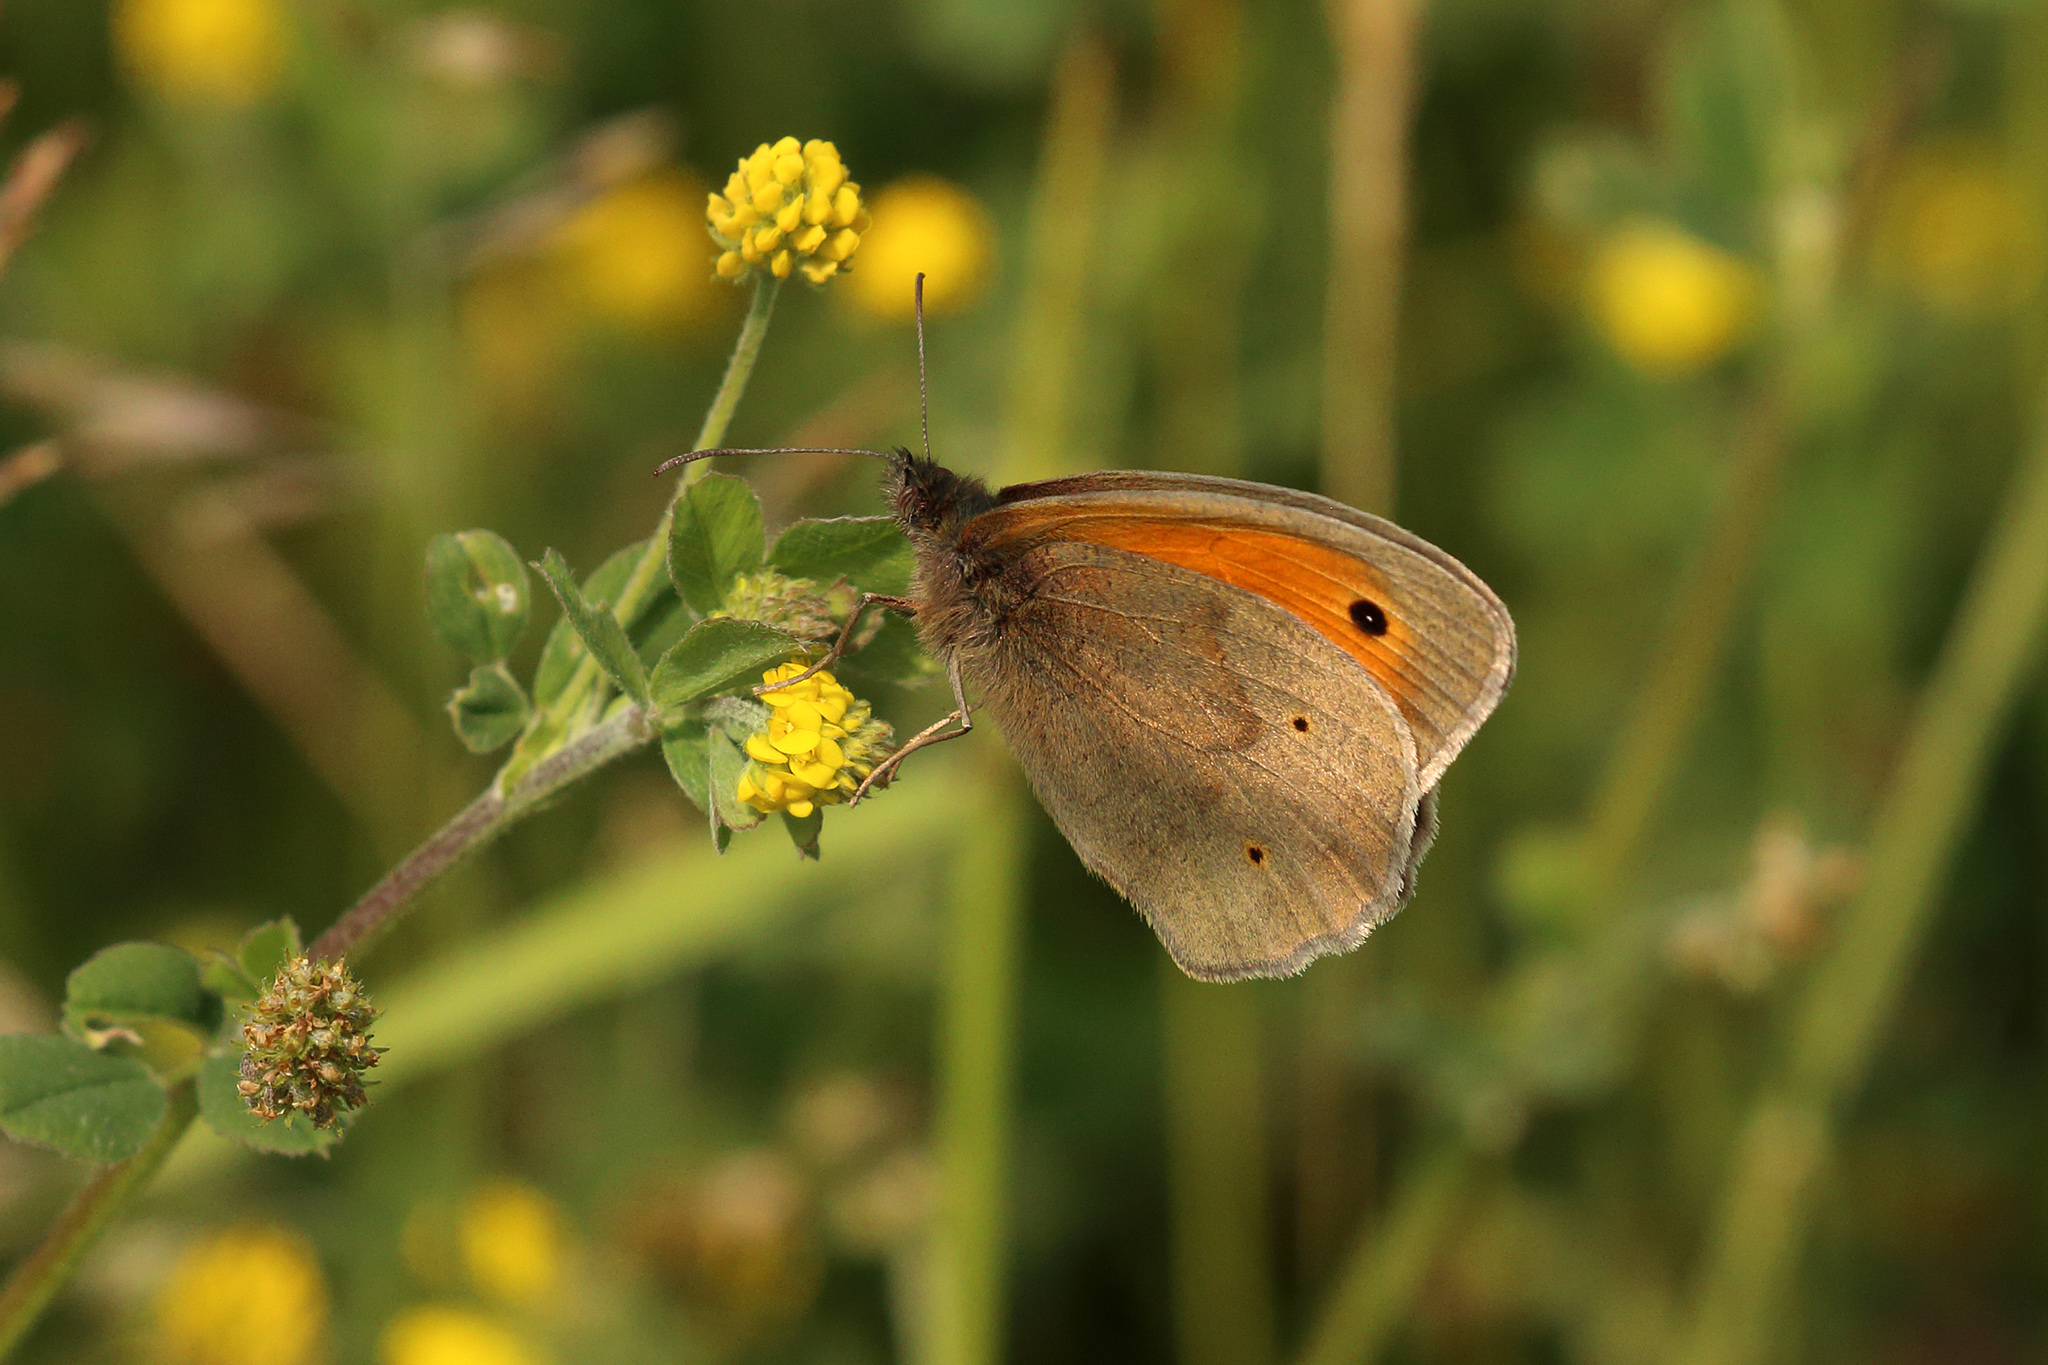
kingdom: Animalia
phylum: Arthropoda
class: Insecta
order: Lepidoptera
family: Nymphalidae
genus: Maniola
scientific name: Maniola jurtina
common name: Meadow brown
